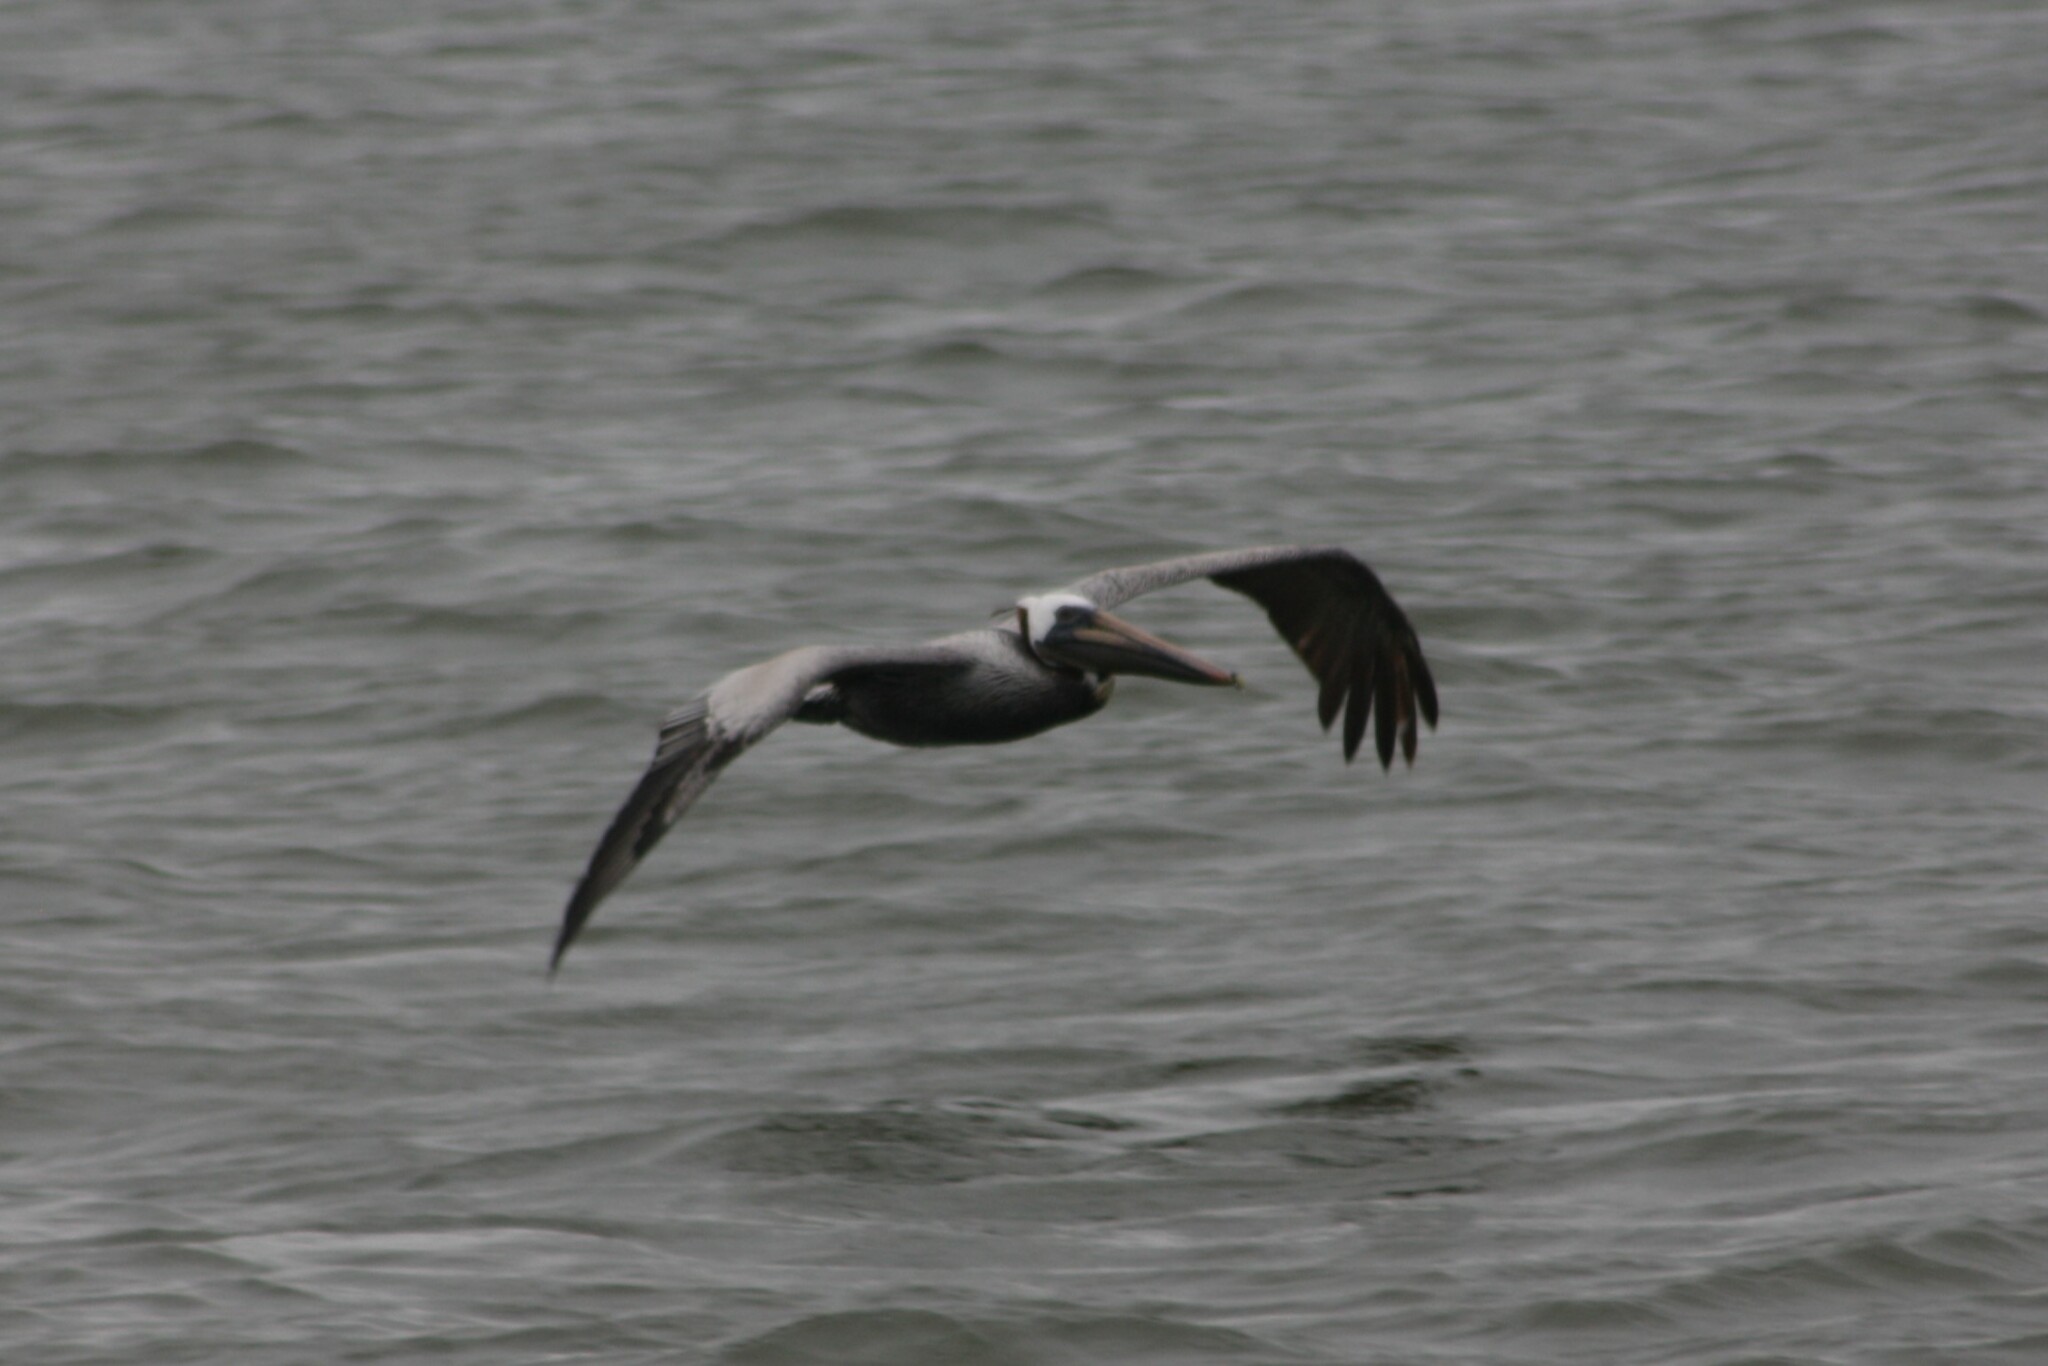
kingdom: Animalia
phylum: Chordata
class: Aves
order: Pelecaniformes
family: Pelecanidae
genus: Pelecanus
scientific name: Pelecanus occidentalis
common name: Brown pelican
